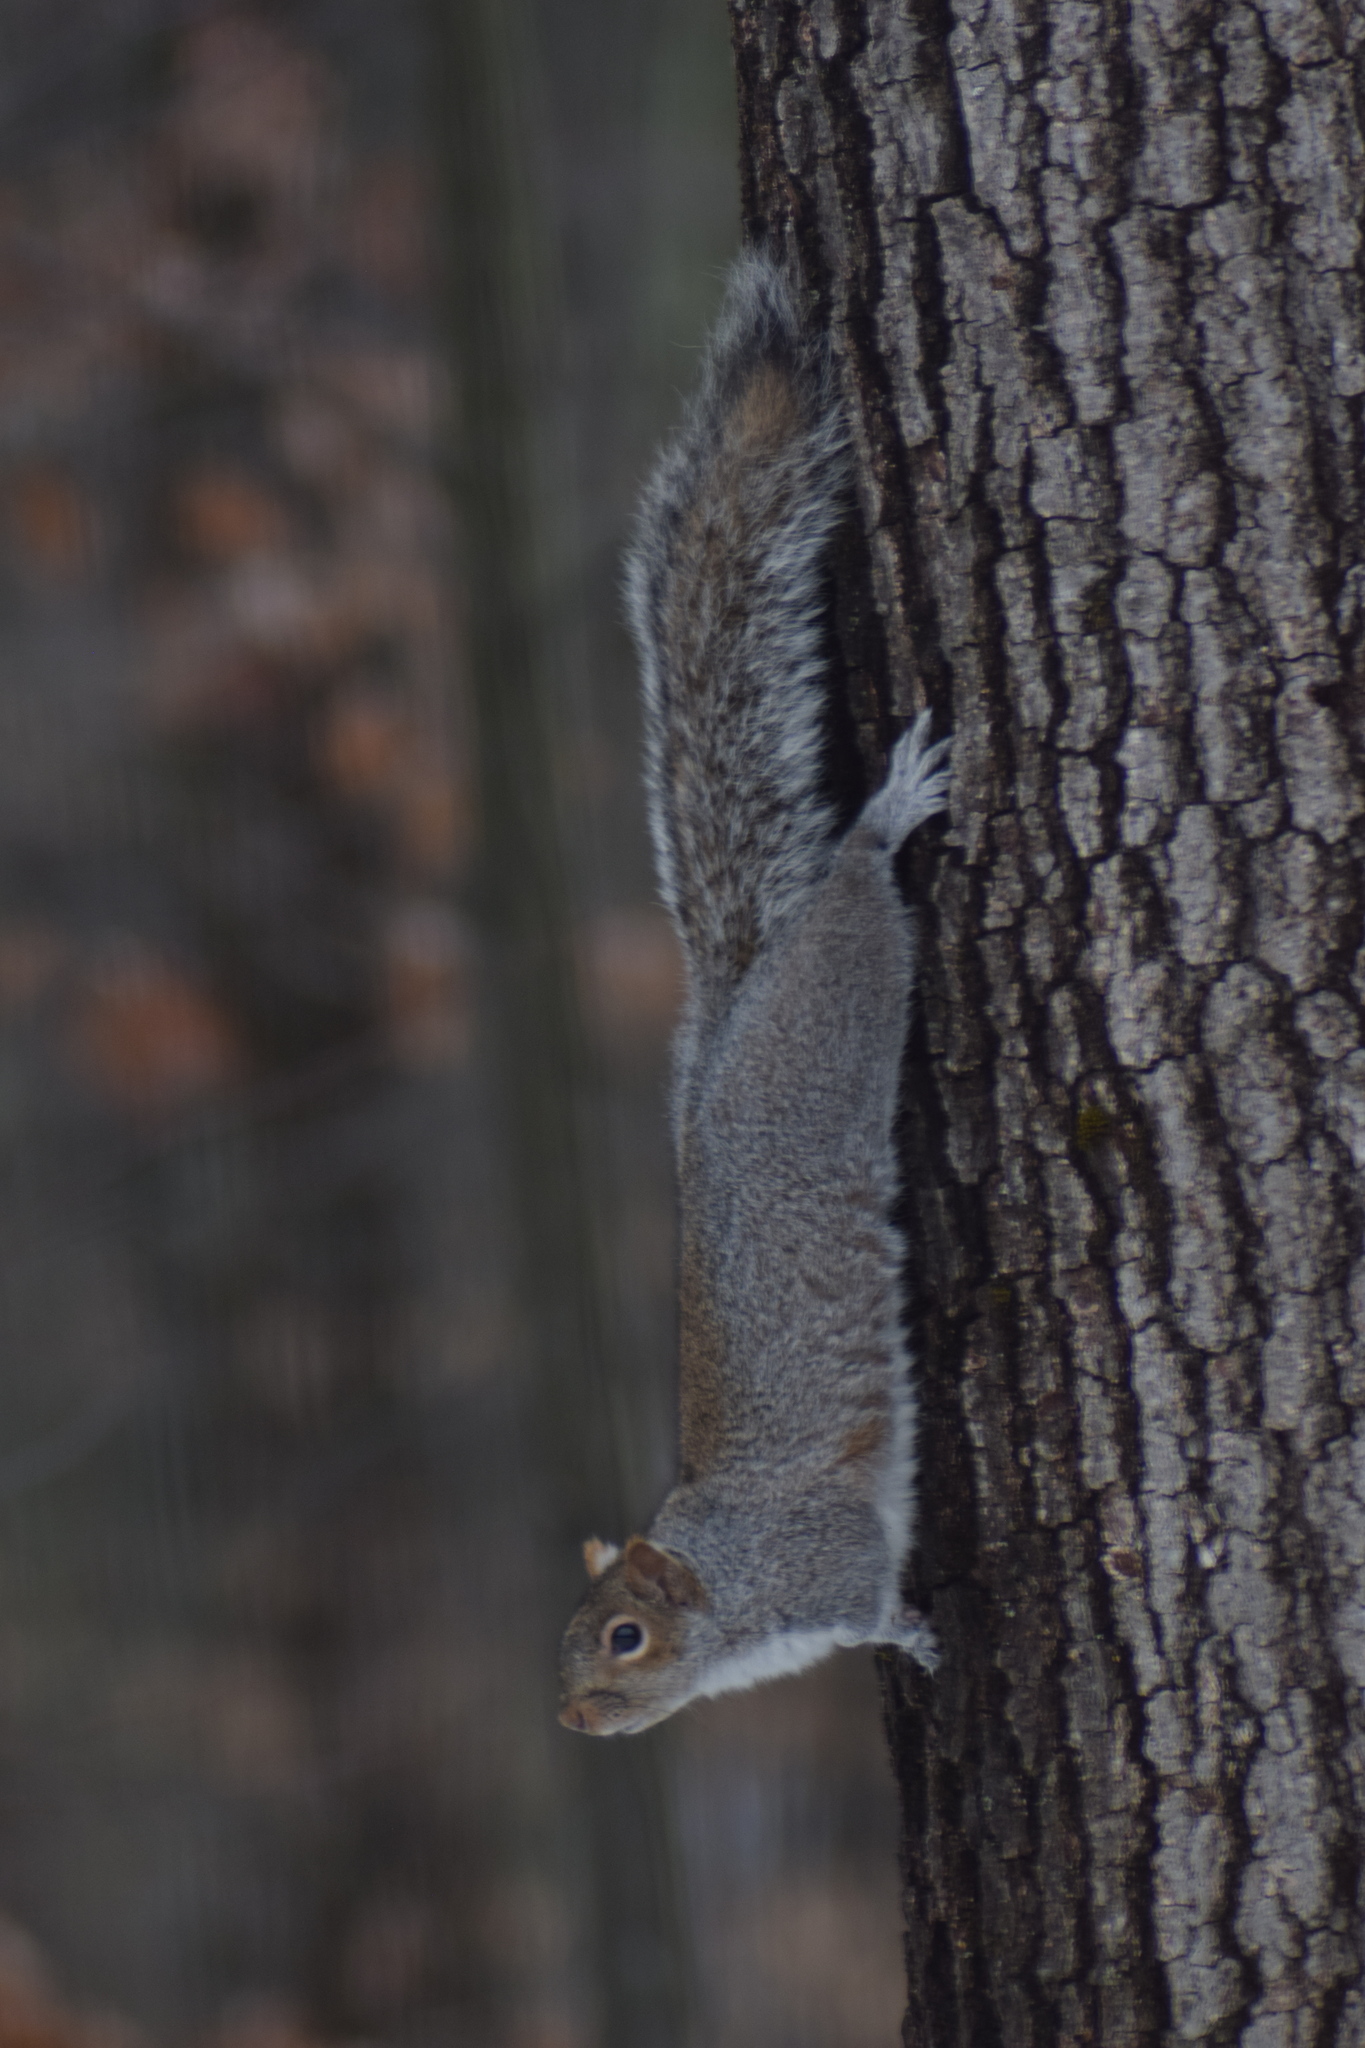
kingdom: Animalia
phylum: Chordata
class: Mammalia
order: Rodentia
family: Sciuridae
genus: Sciurus
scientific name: Sciurus carolinensis
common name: Eastern gray squirrel
